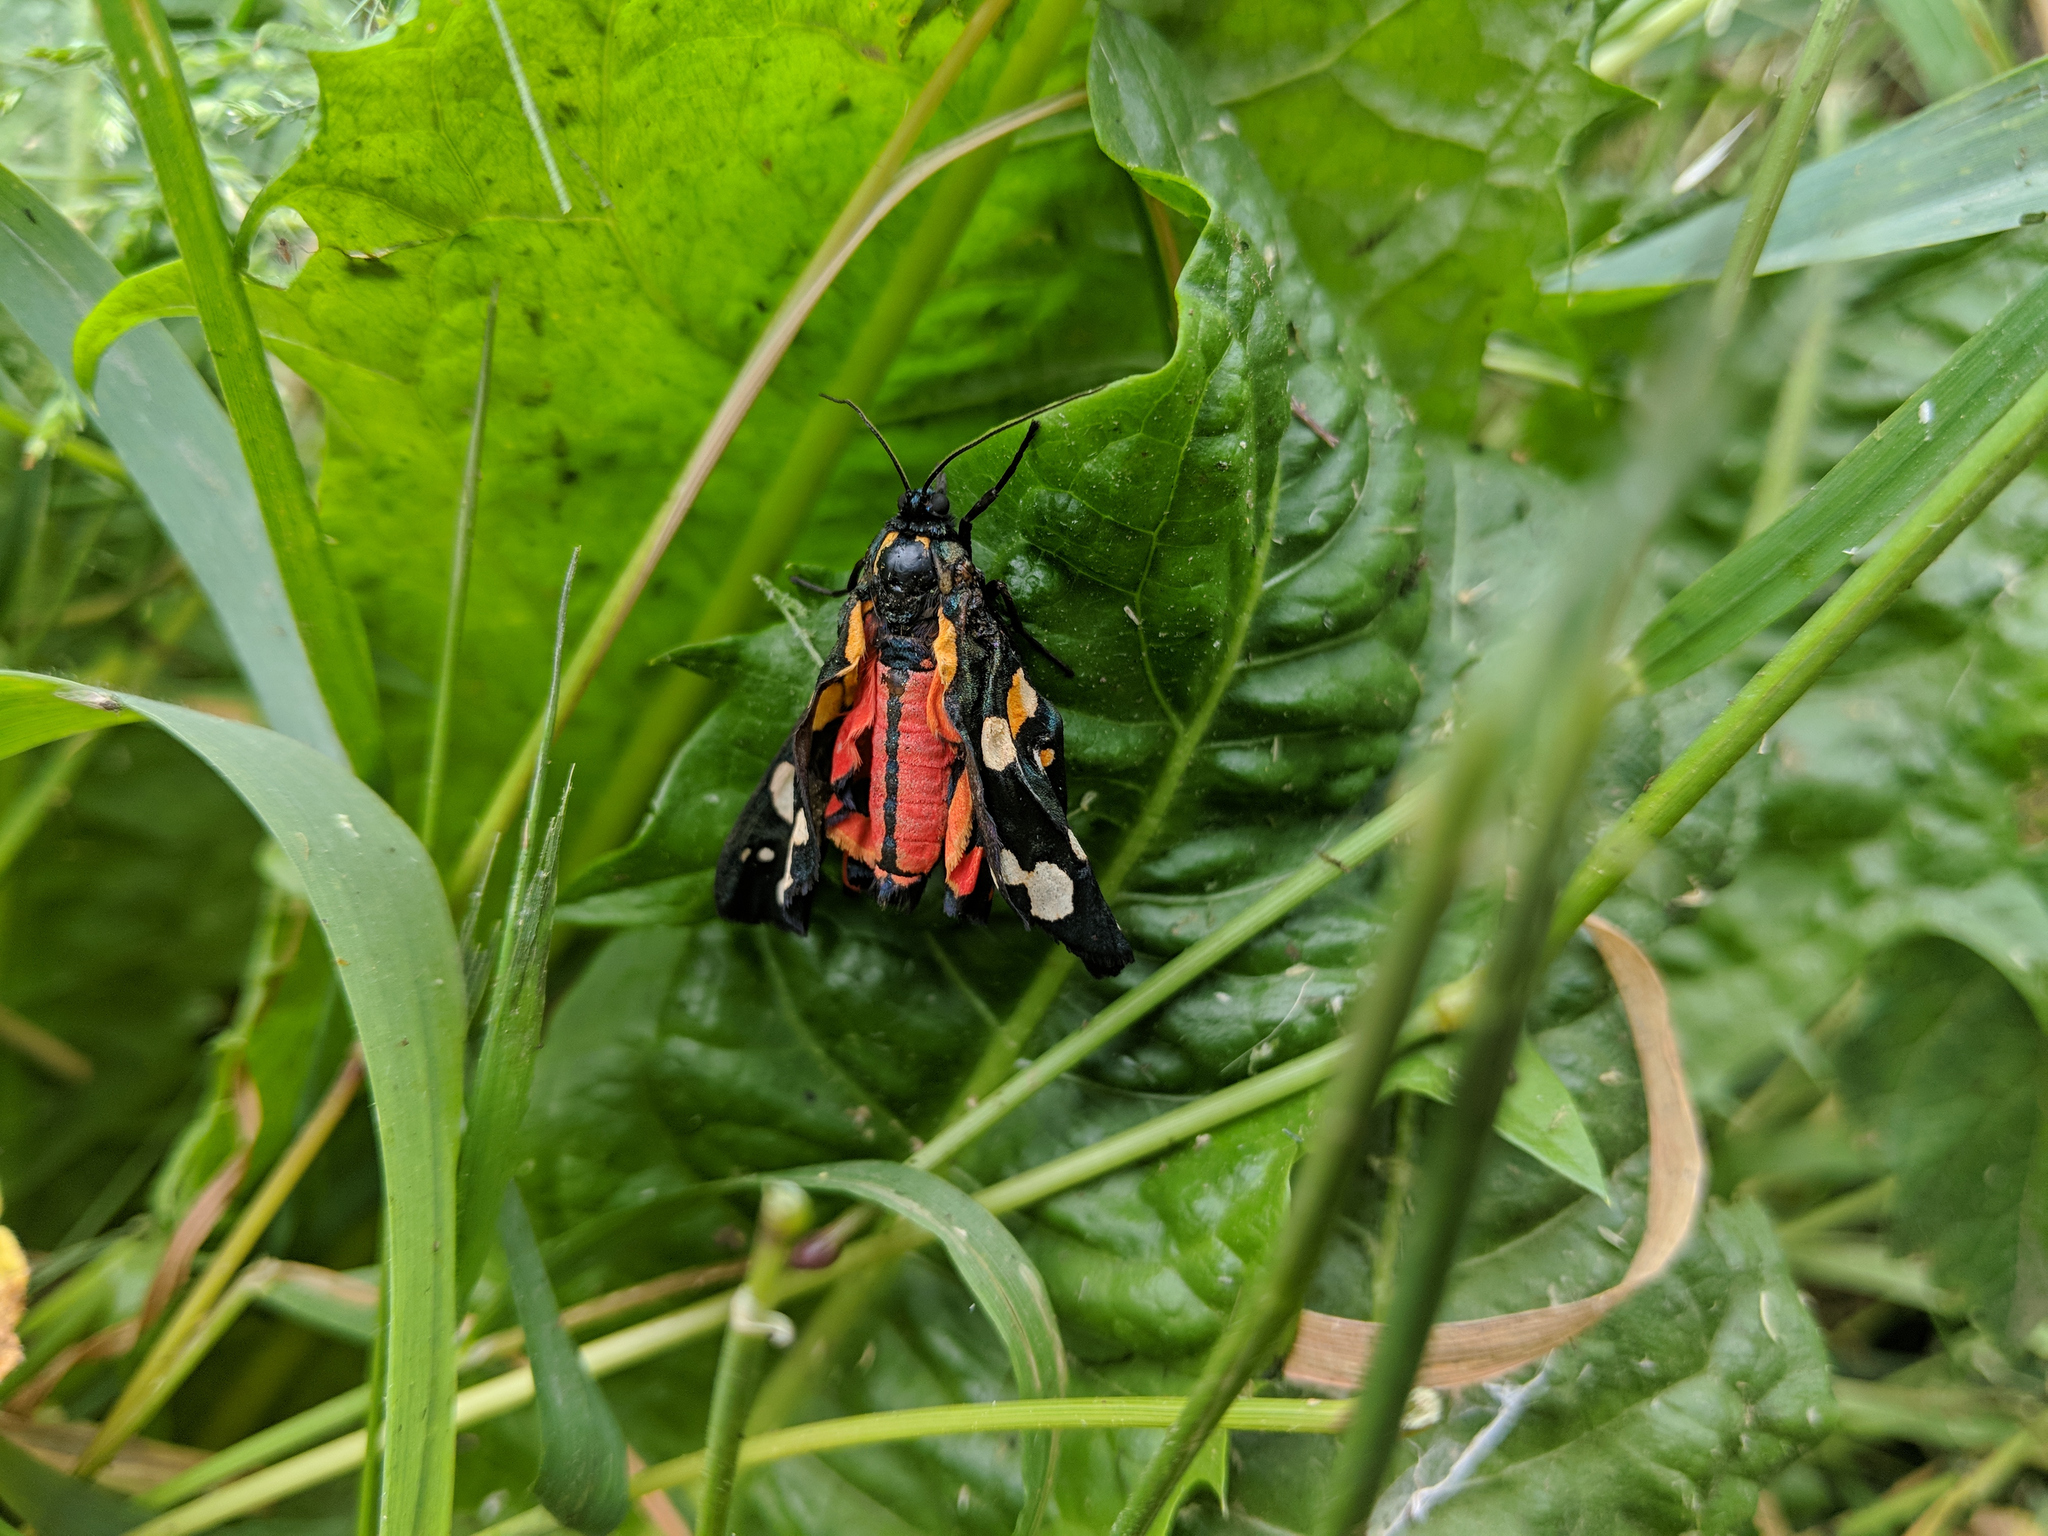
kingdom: Animalia
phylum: Arthropoda
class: Insecta
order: Lepidoptera
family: Erebidae
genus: Callimorpha
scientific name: Callimorpha dominula
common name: Scarlet tiger
